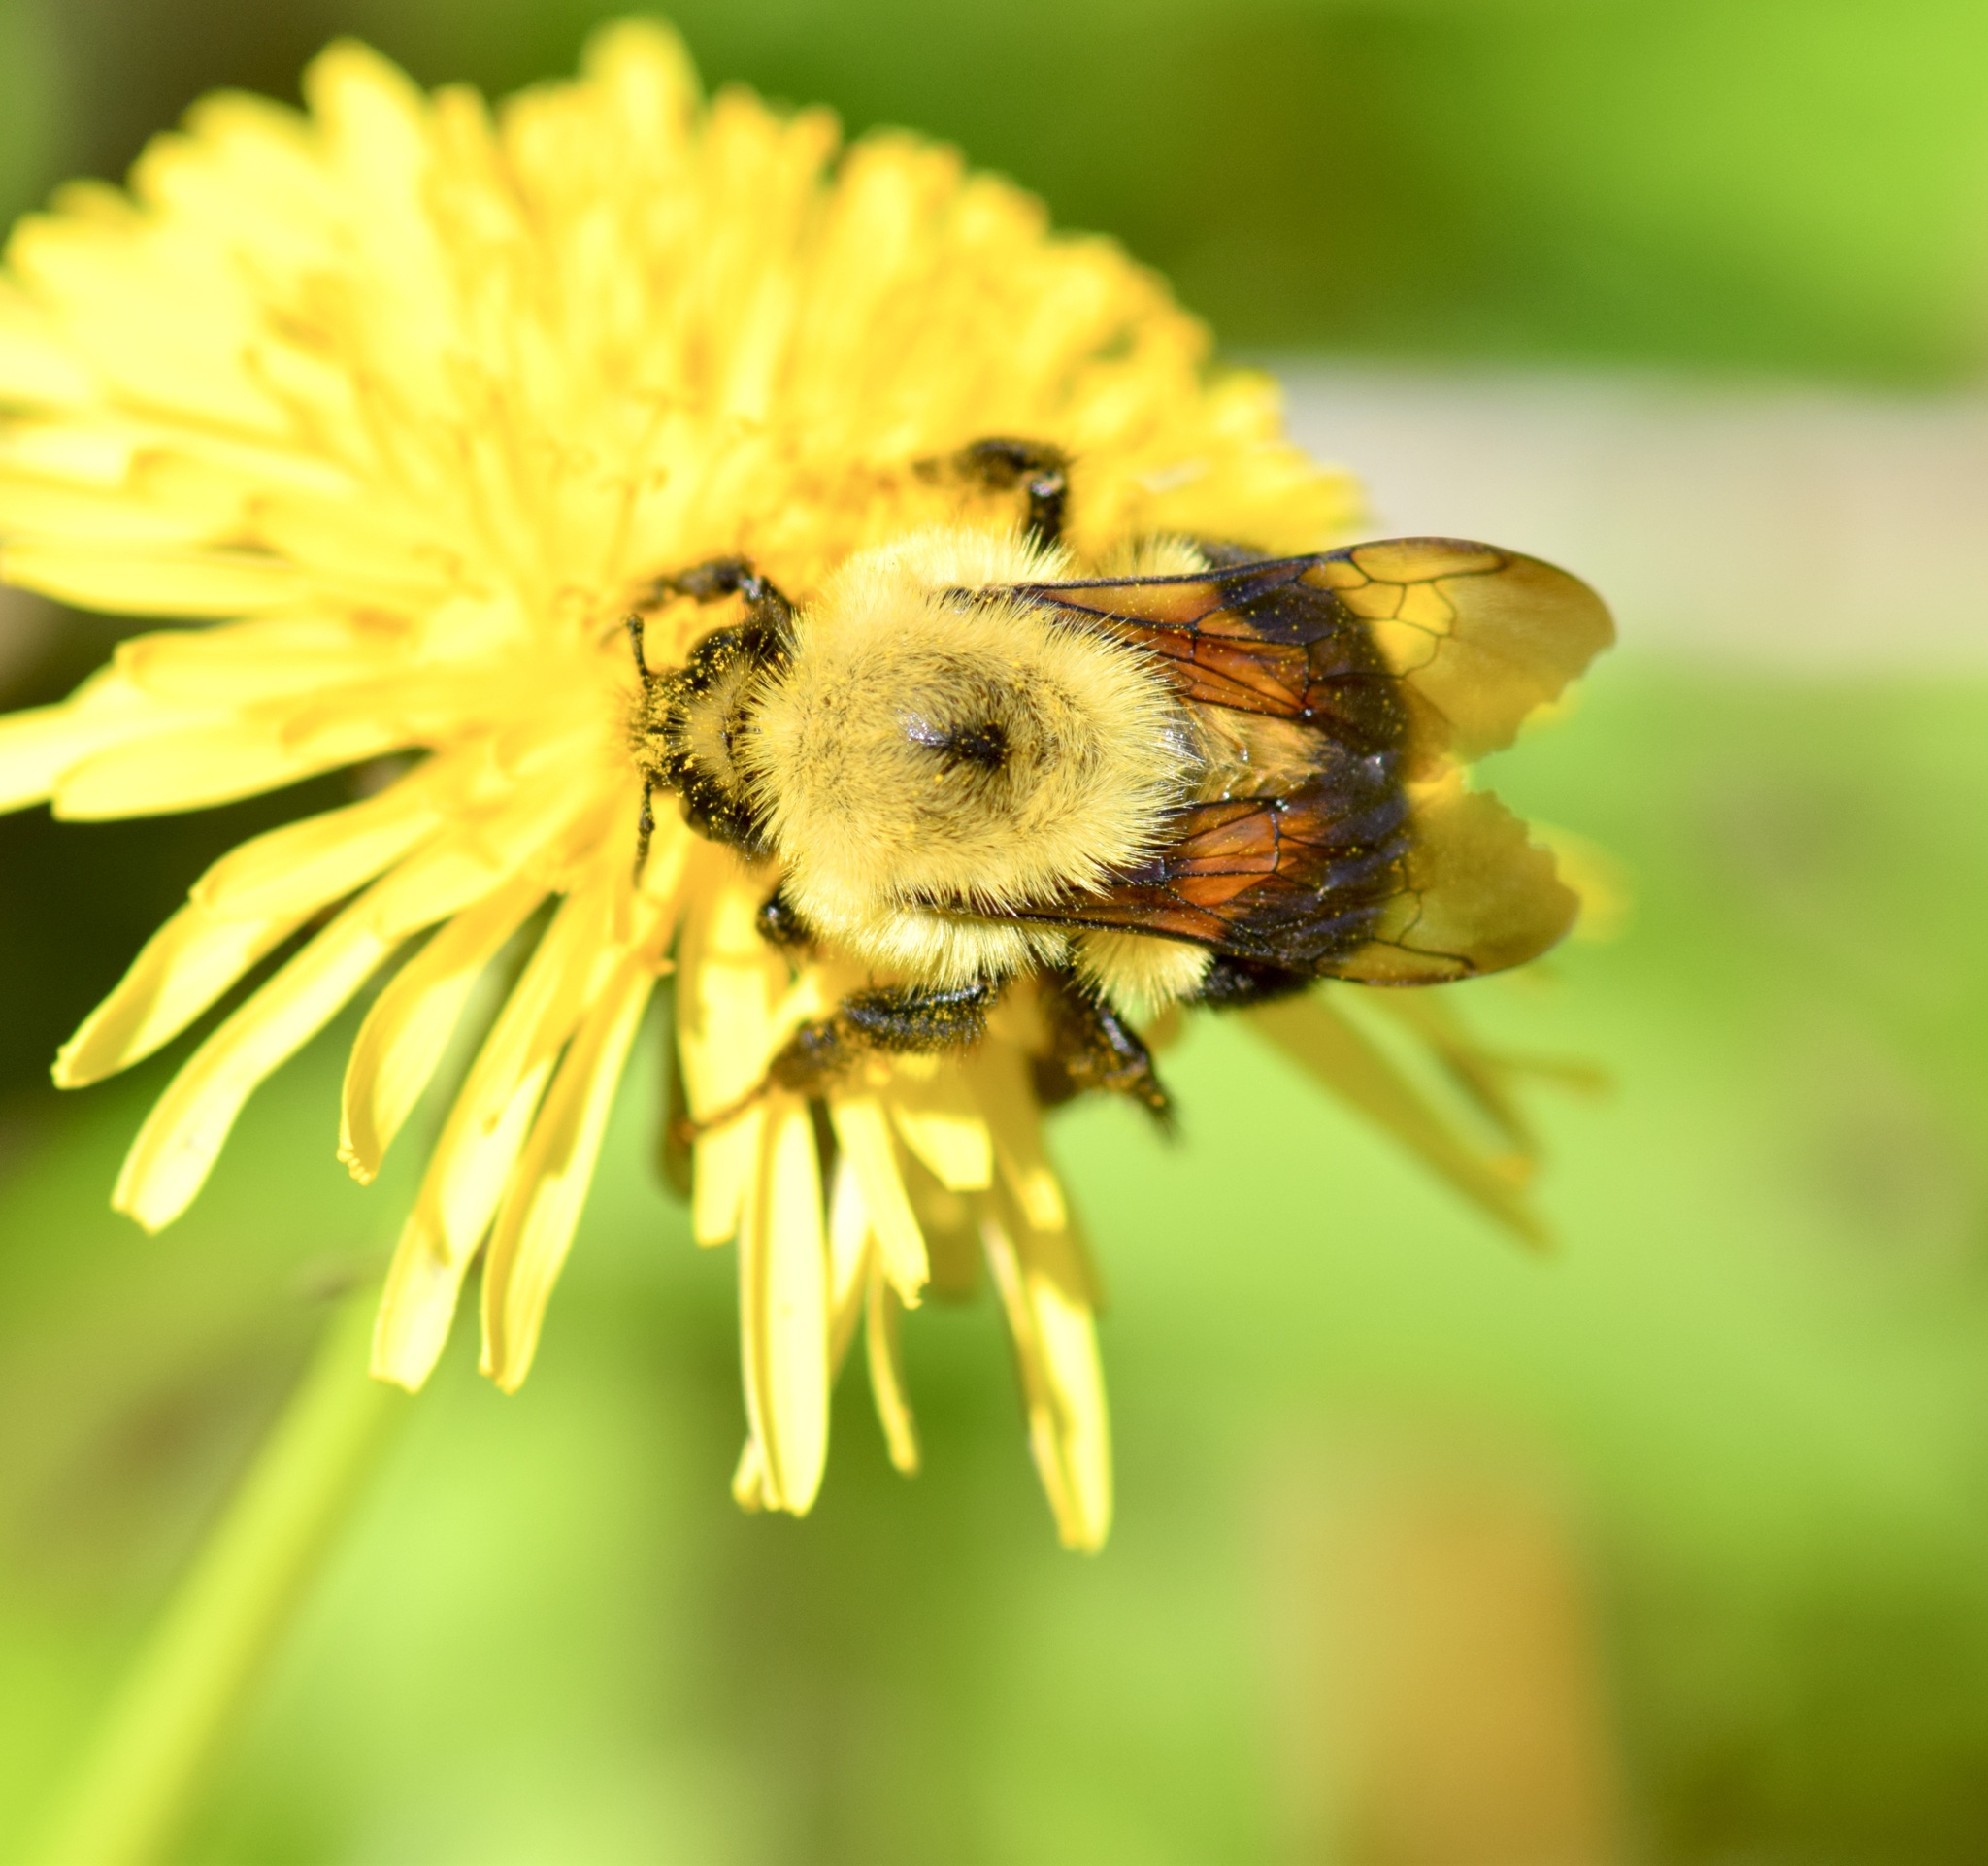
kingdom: Animalia
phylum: Arthropoda
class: Insecta
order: Hymenoptera
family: Apidae
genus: Bombus
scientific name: Bombus bimaculatus
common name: Two-spotted bumble bee
